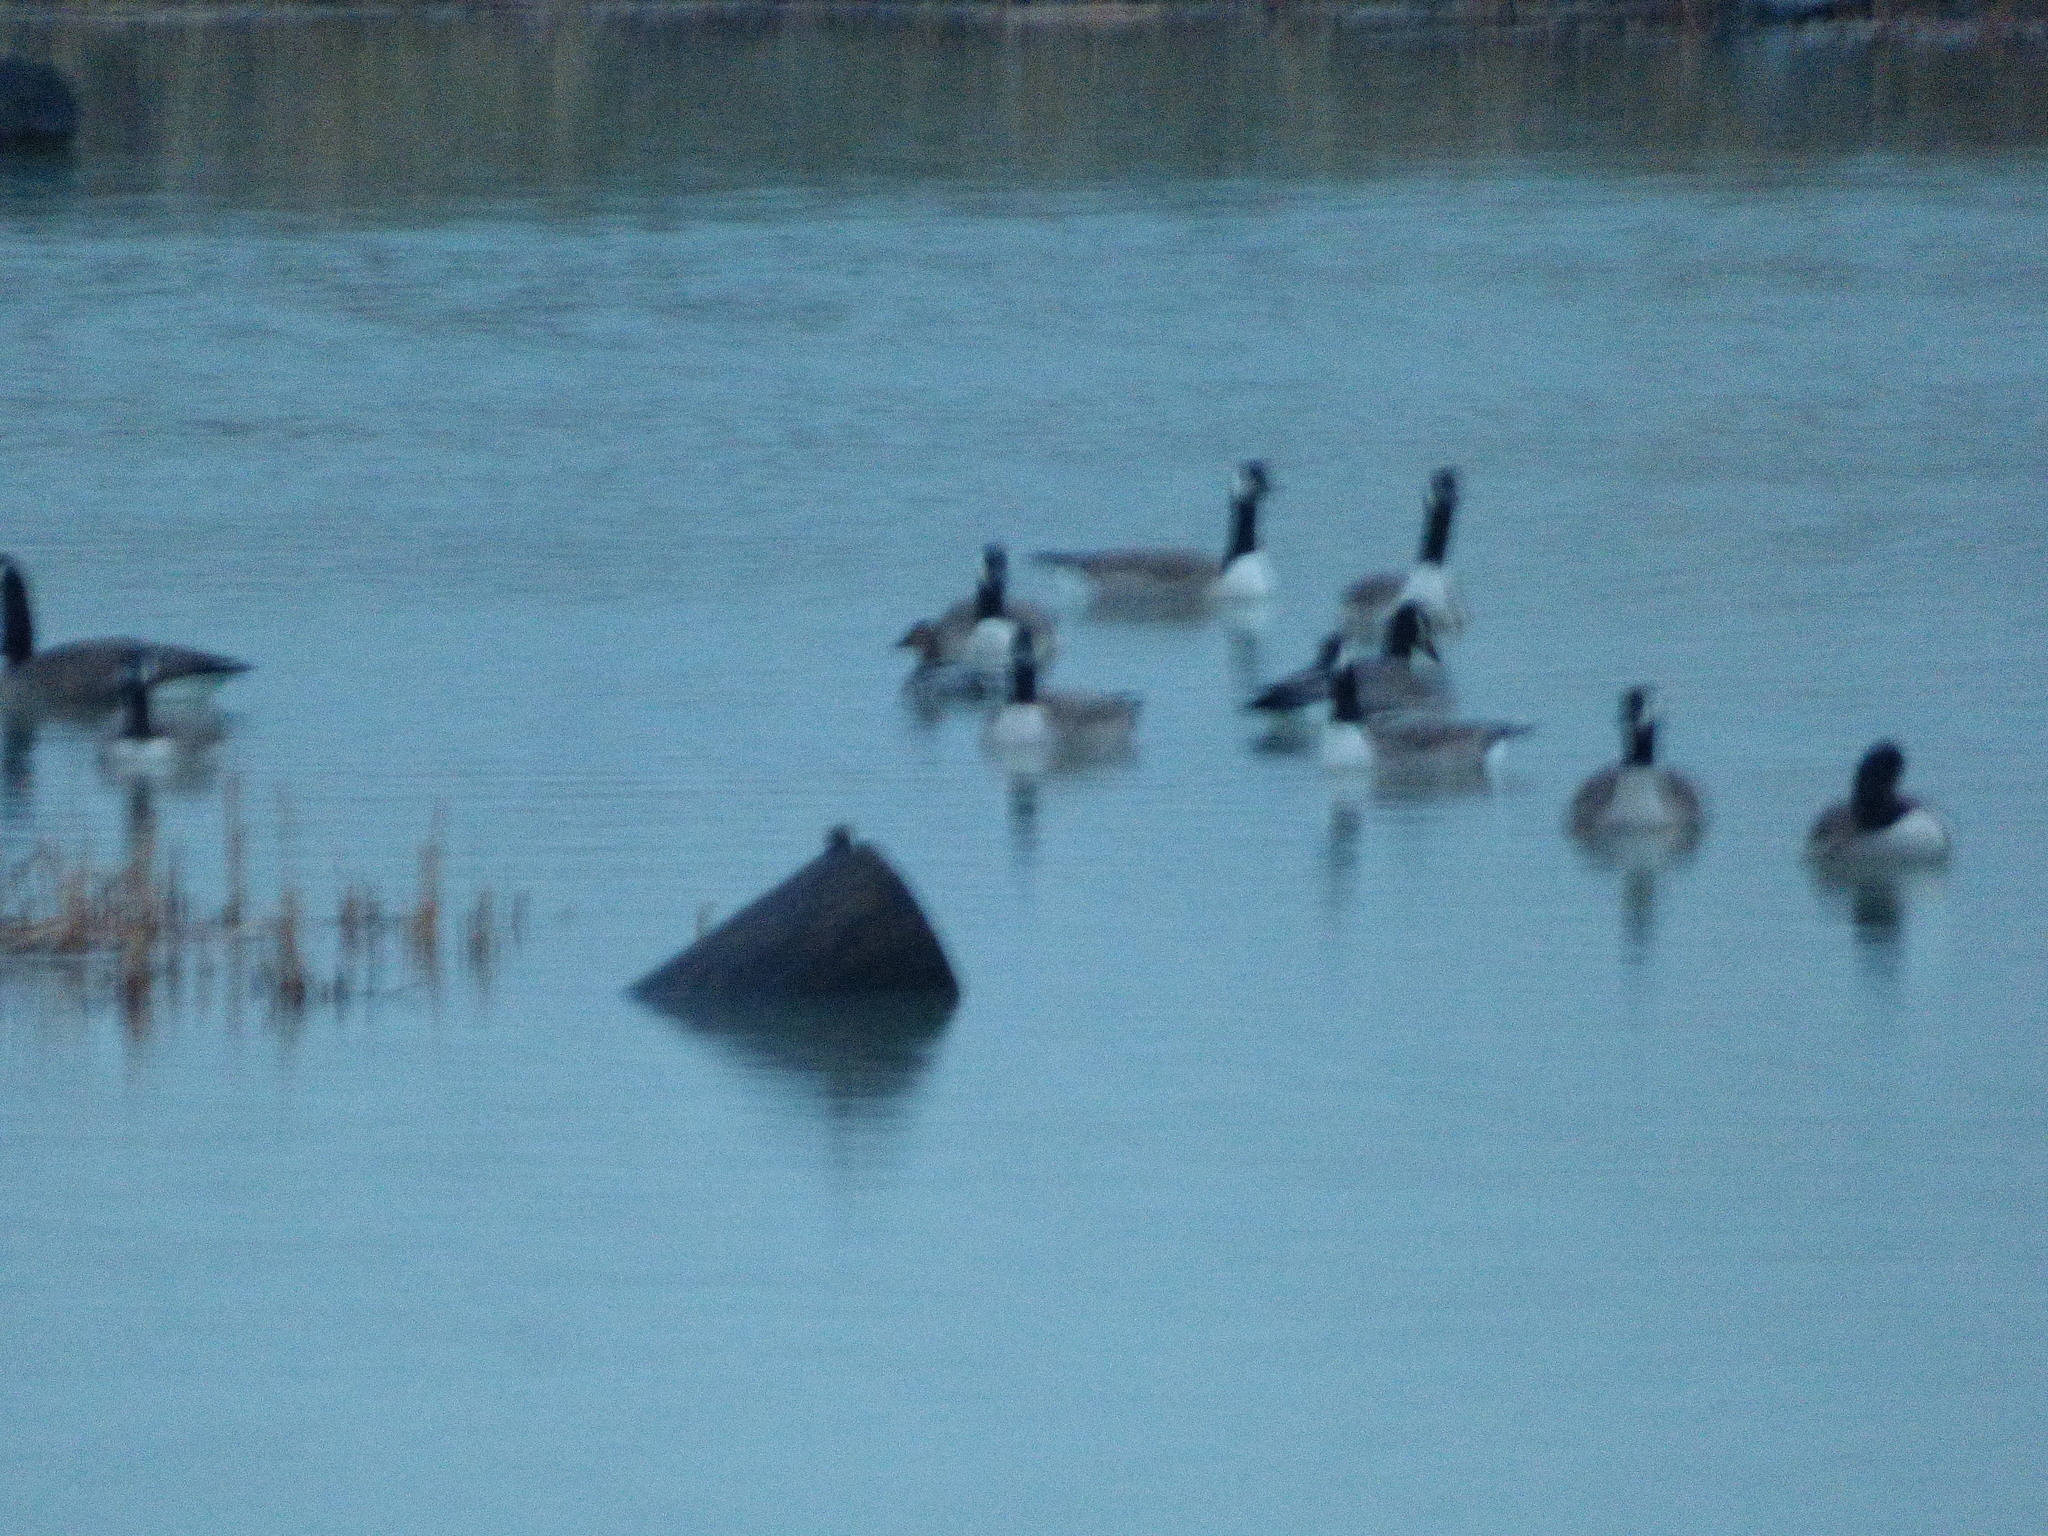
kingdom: Animalia
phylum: Chordata
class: Aves
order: Anseriformes
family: Anatidae
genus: Branta
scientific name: Branta canadensis
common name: Canada goose
